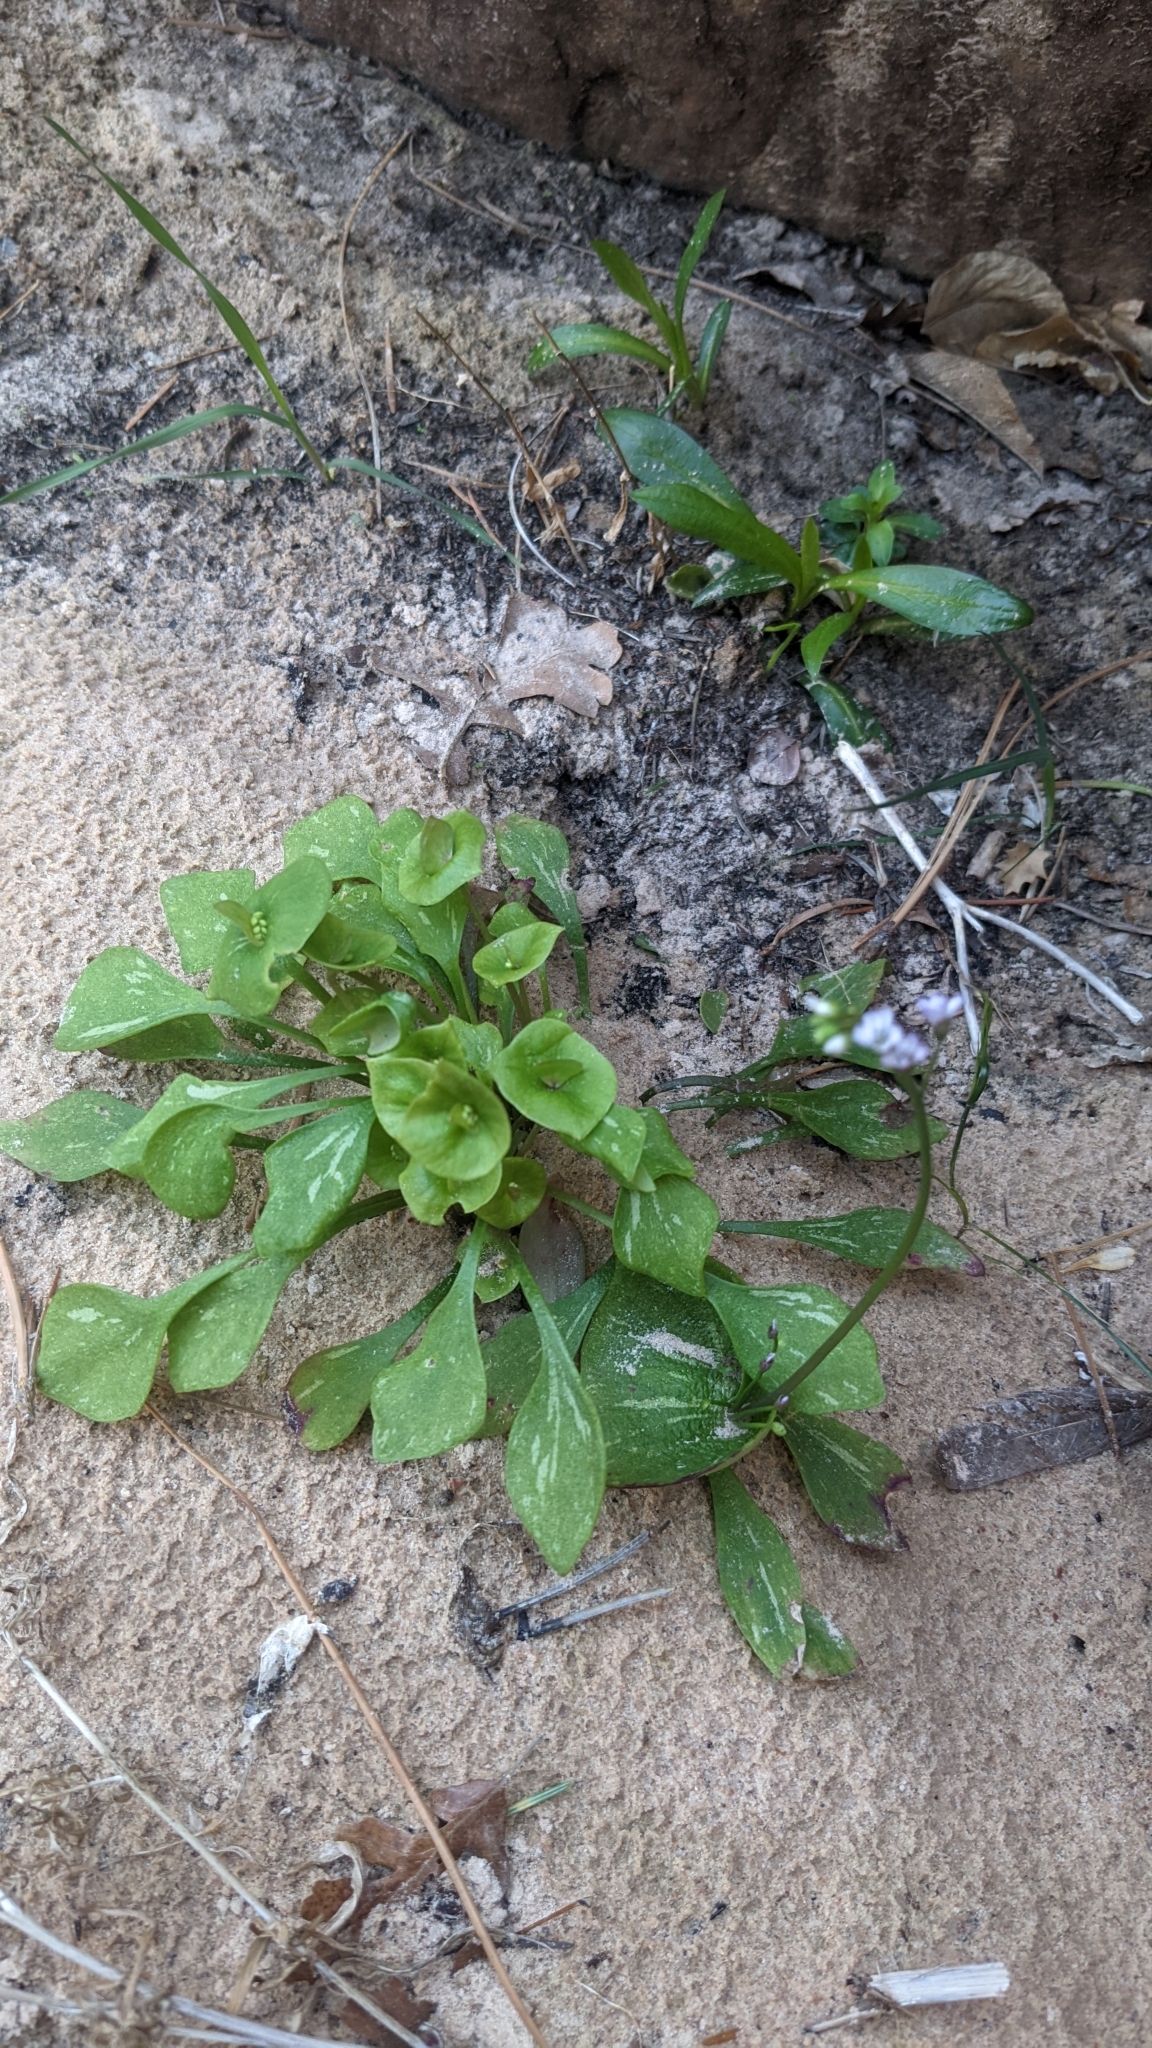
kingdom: Plantae
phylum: Tracheophyta
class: Magnoliopsida
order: Caryophyllales
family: Montiaceae
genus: Claytonia
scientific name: Claytonia perfoliata
